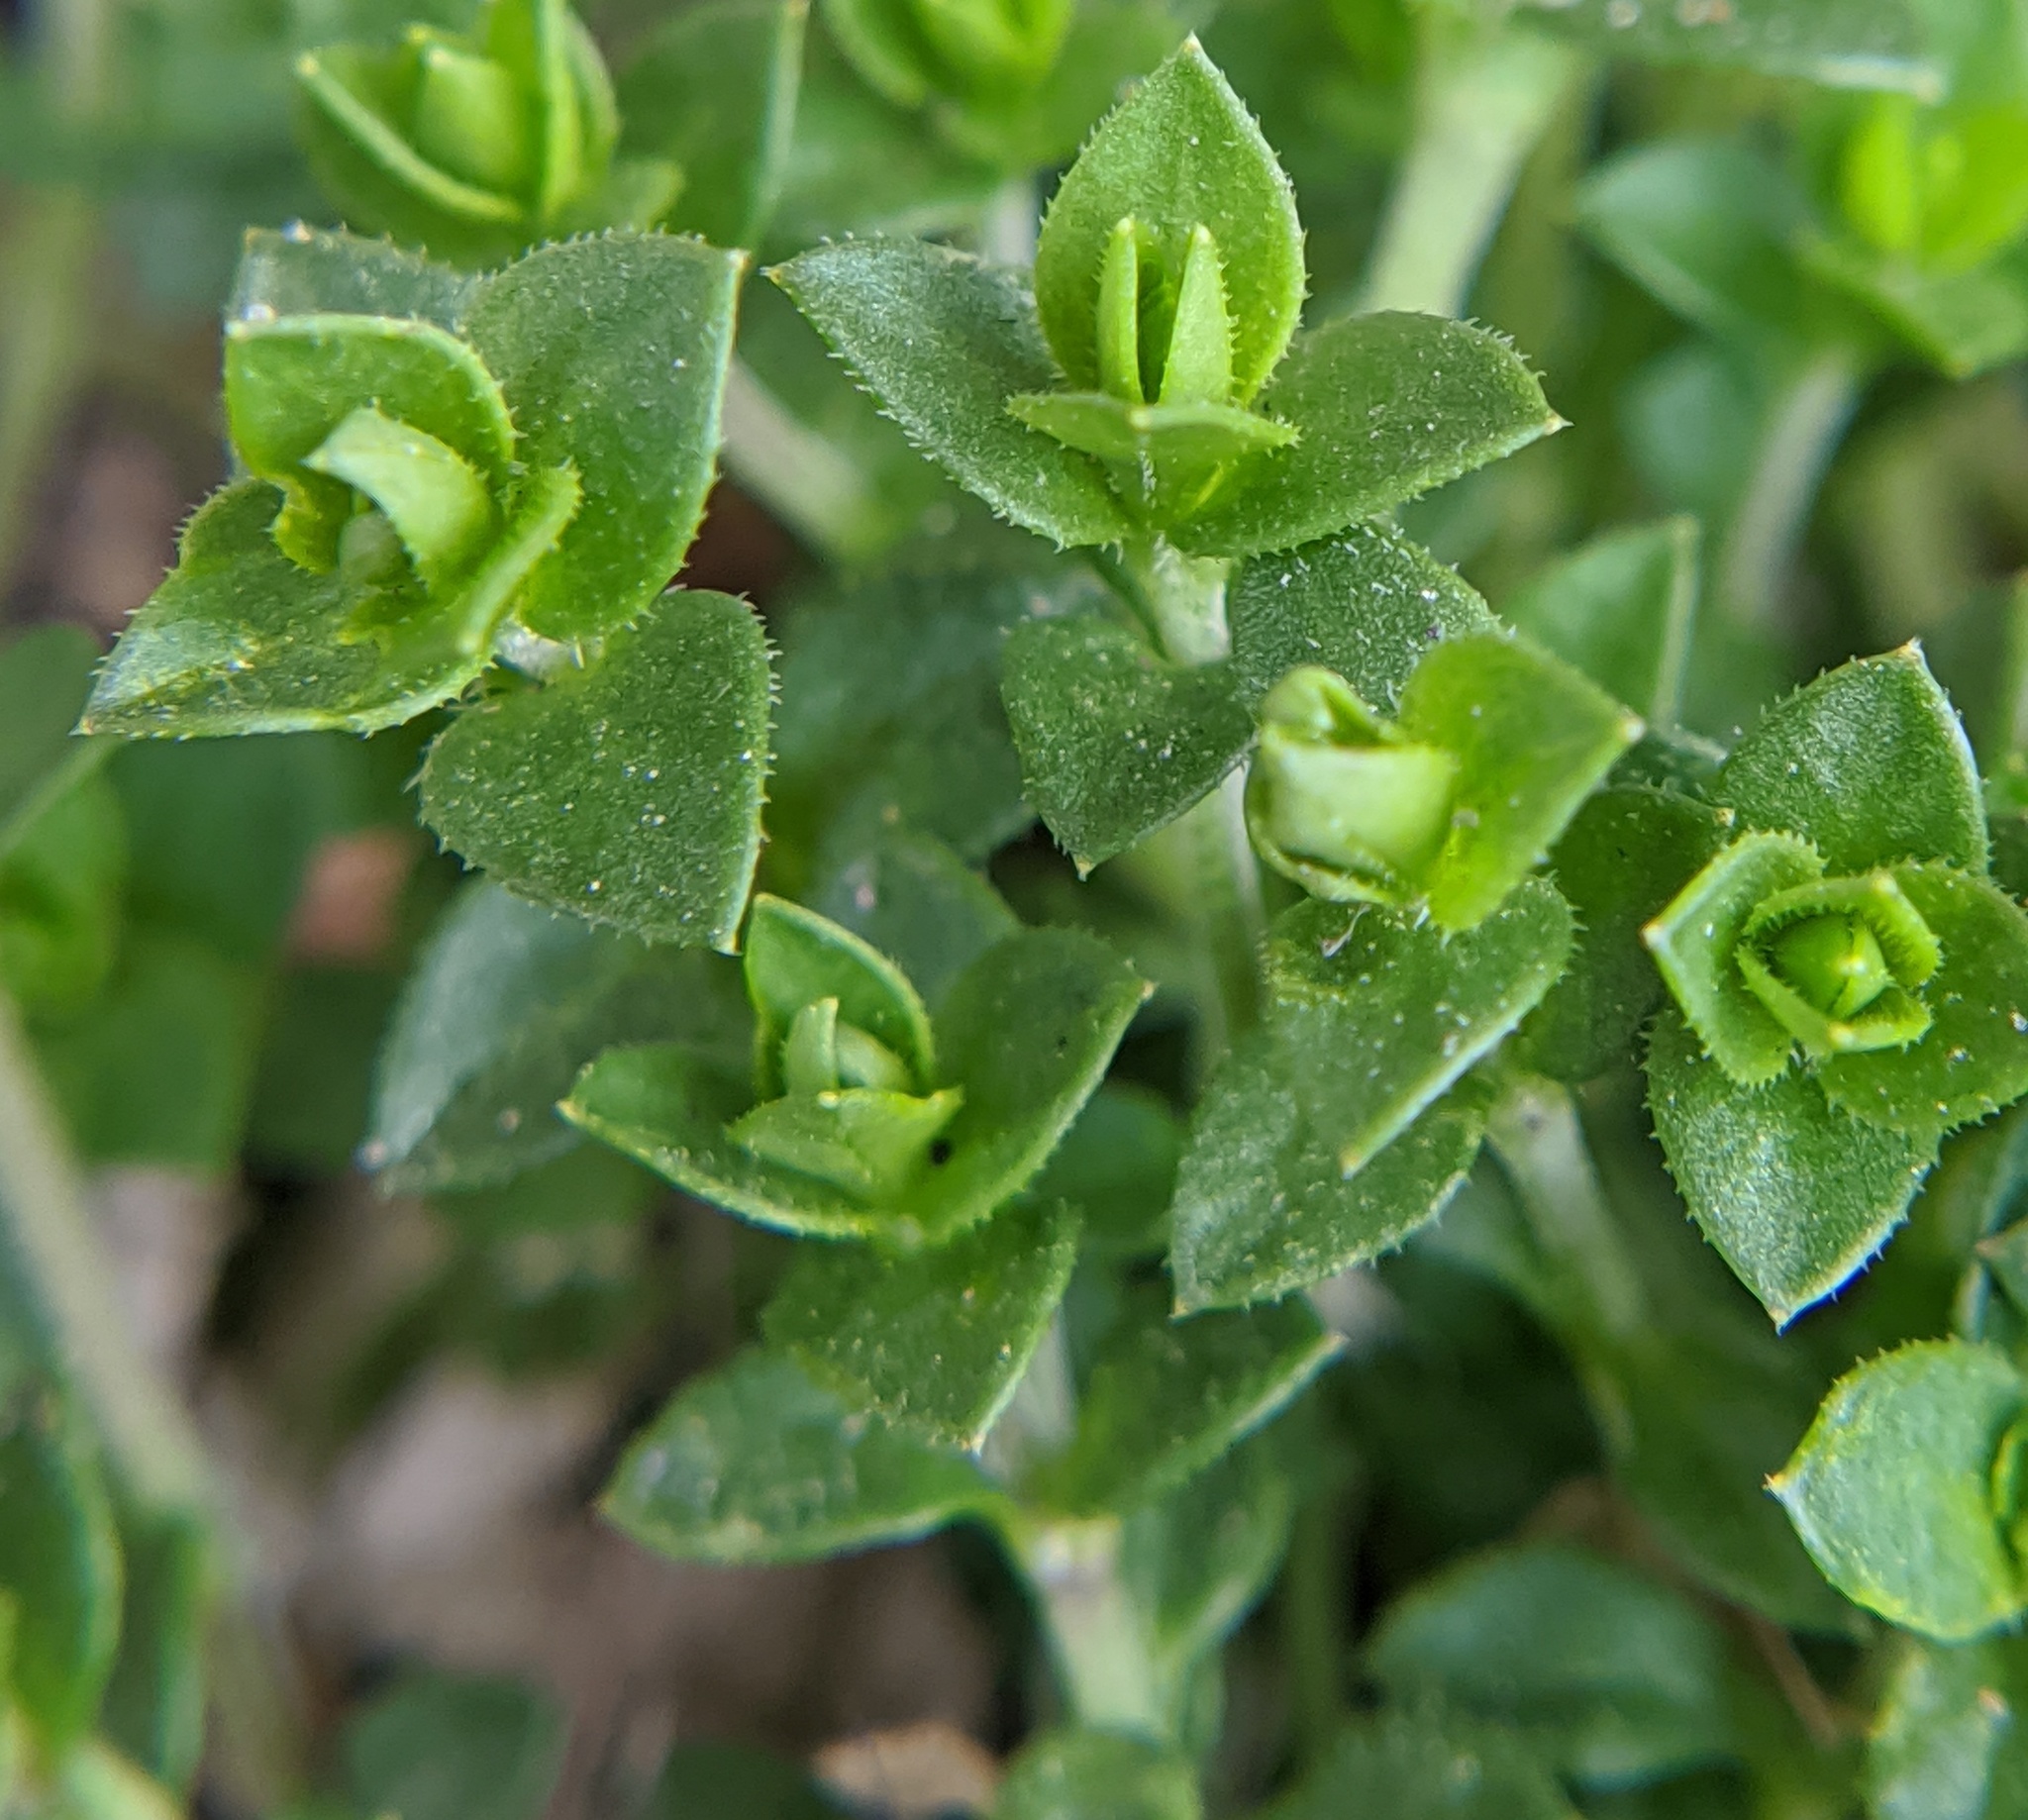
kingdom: Plantae
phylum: Tracheophyta
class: Magnoliopsida
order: Caryophyllales
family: Caryophyllaceae
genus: Arenaria
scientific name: Arenaria serpyllifolia
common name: Thyme-leaved sandwort
